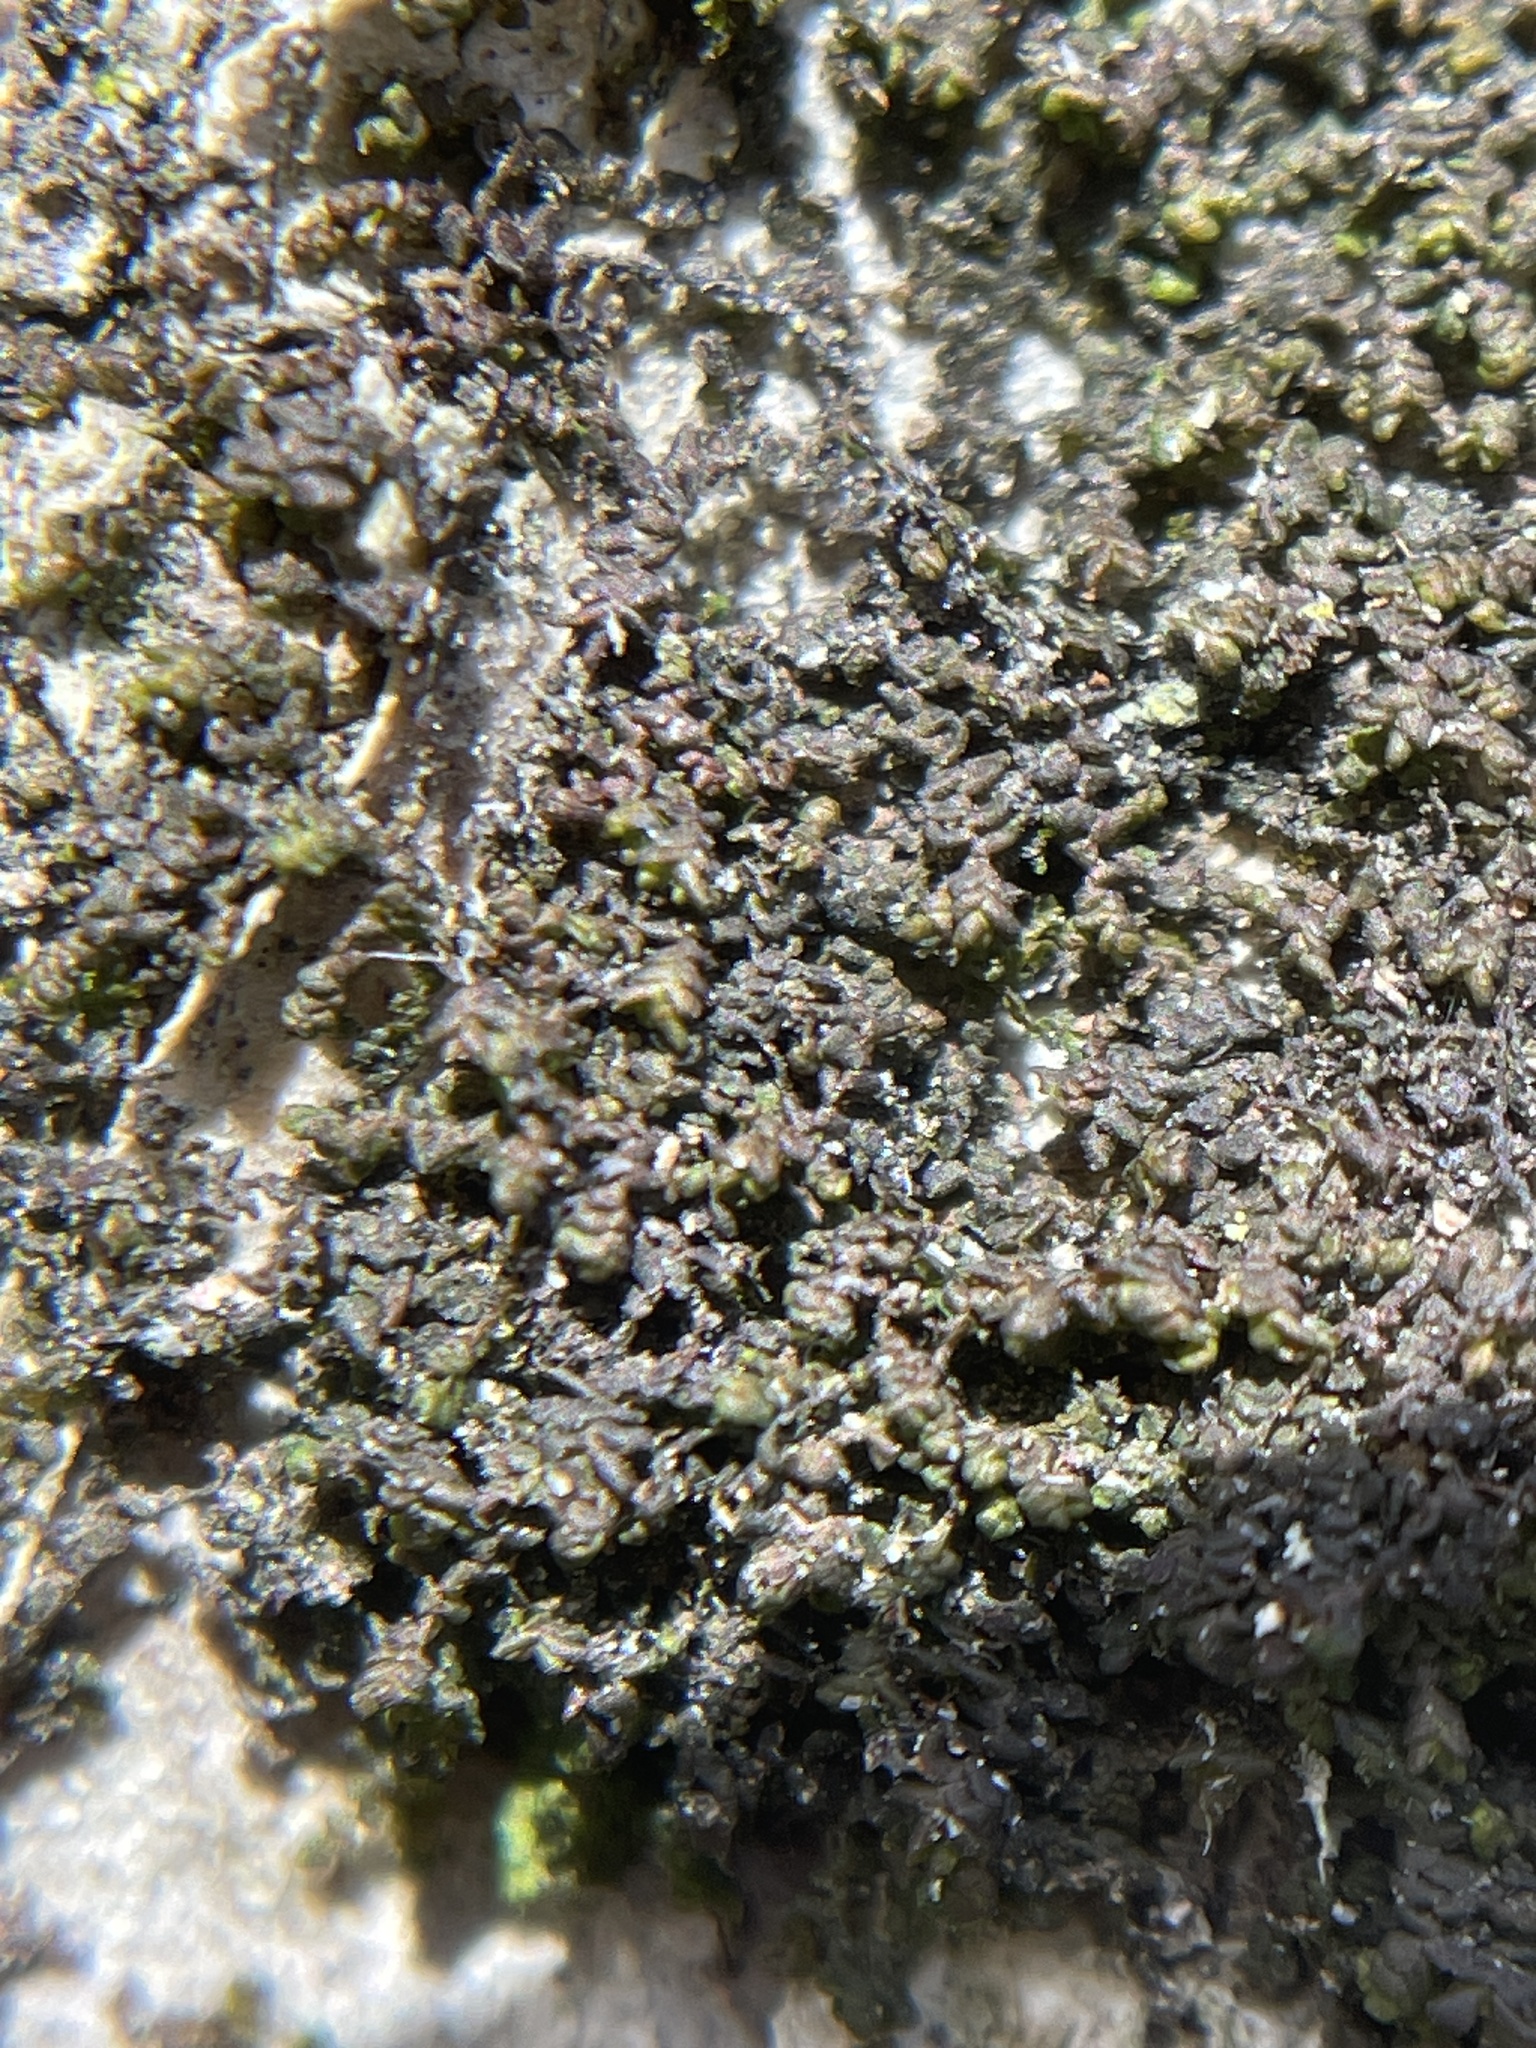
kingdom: Plantae
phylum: Marchantiophyta
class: Jungermanniopsida
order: Porellales
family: Frullaniaceae
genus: Frullania
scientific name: Frullania eboracensis
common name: New york scalewort
